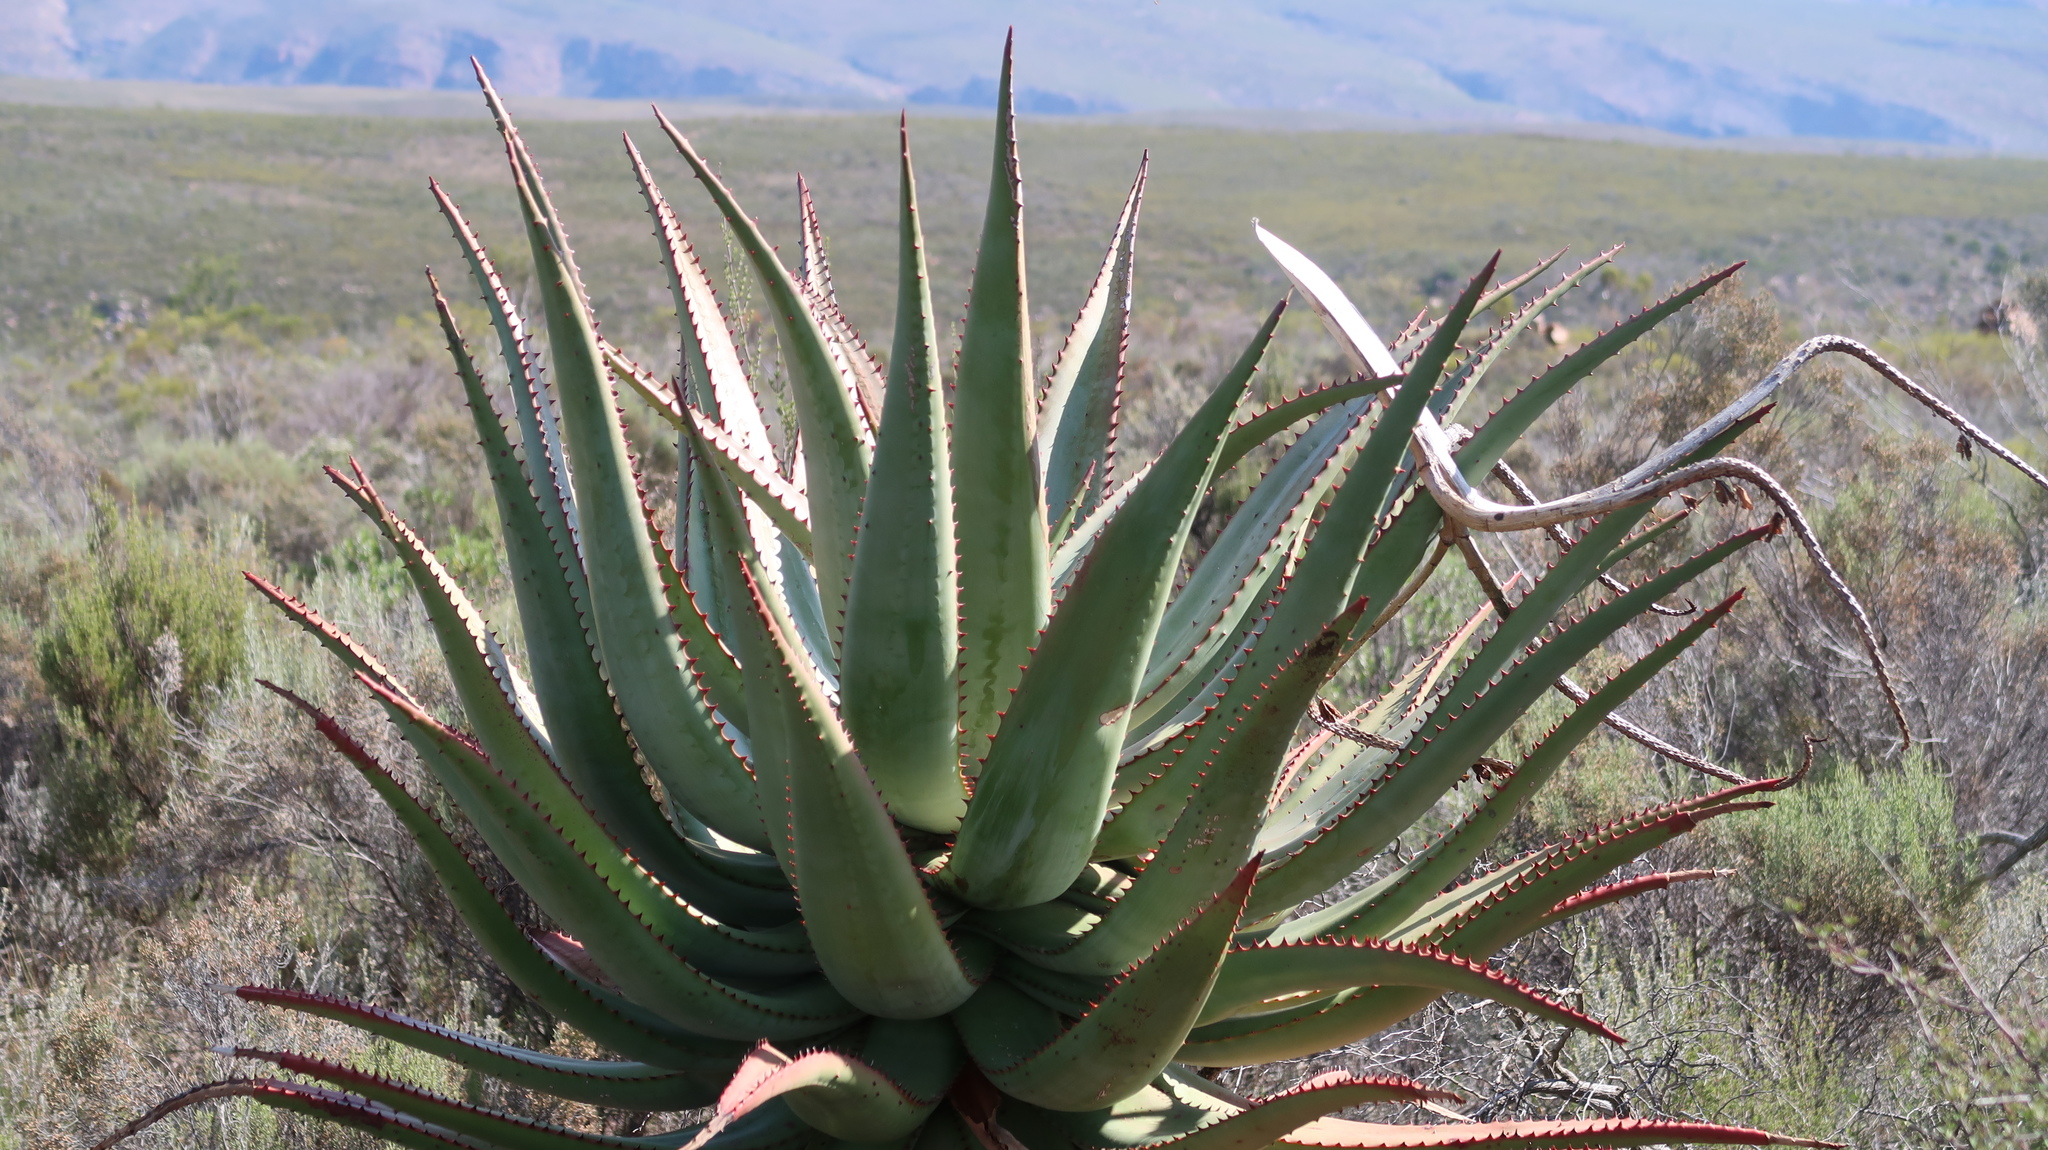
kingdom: Plantae
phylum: Tracheophyta
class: Liliopsida
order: Asparagales
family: Asphodelaceae
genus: Aloe
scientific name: Aloe ferox
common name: Bitter aloe
